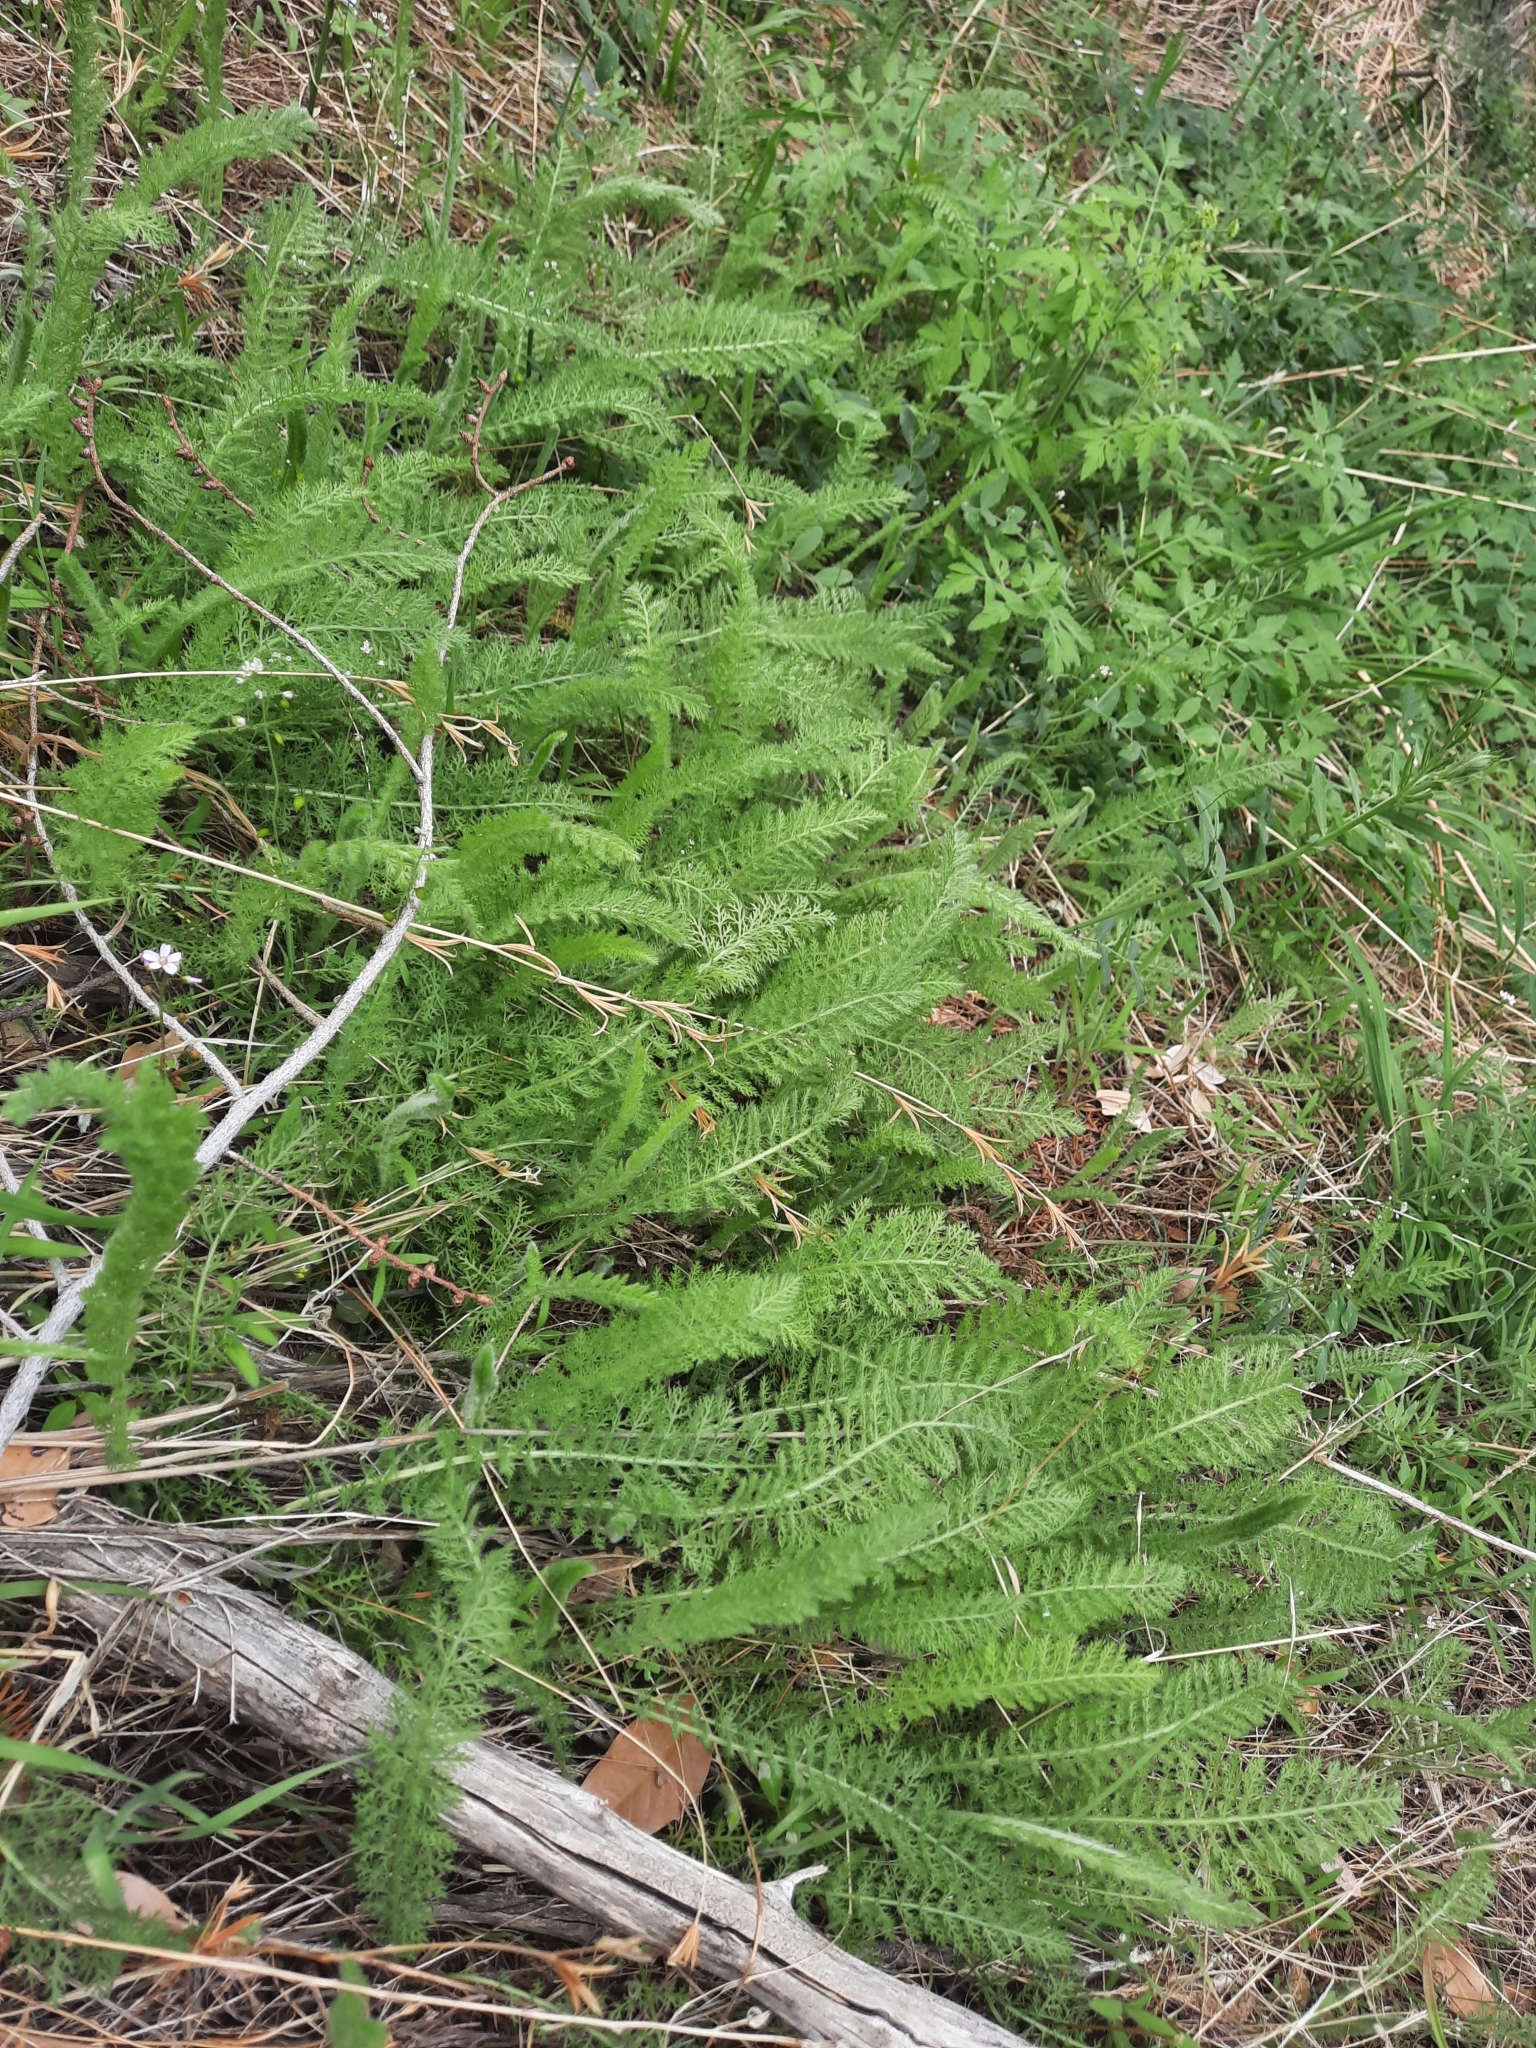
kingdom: Plantae
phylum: Tracheophyta
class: Magnoliopsida
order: Asterales
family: Asteraceae
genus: Achillea
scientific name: Achillea millefolium
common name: Yarrow
